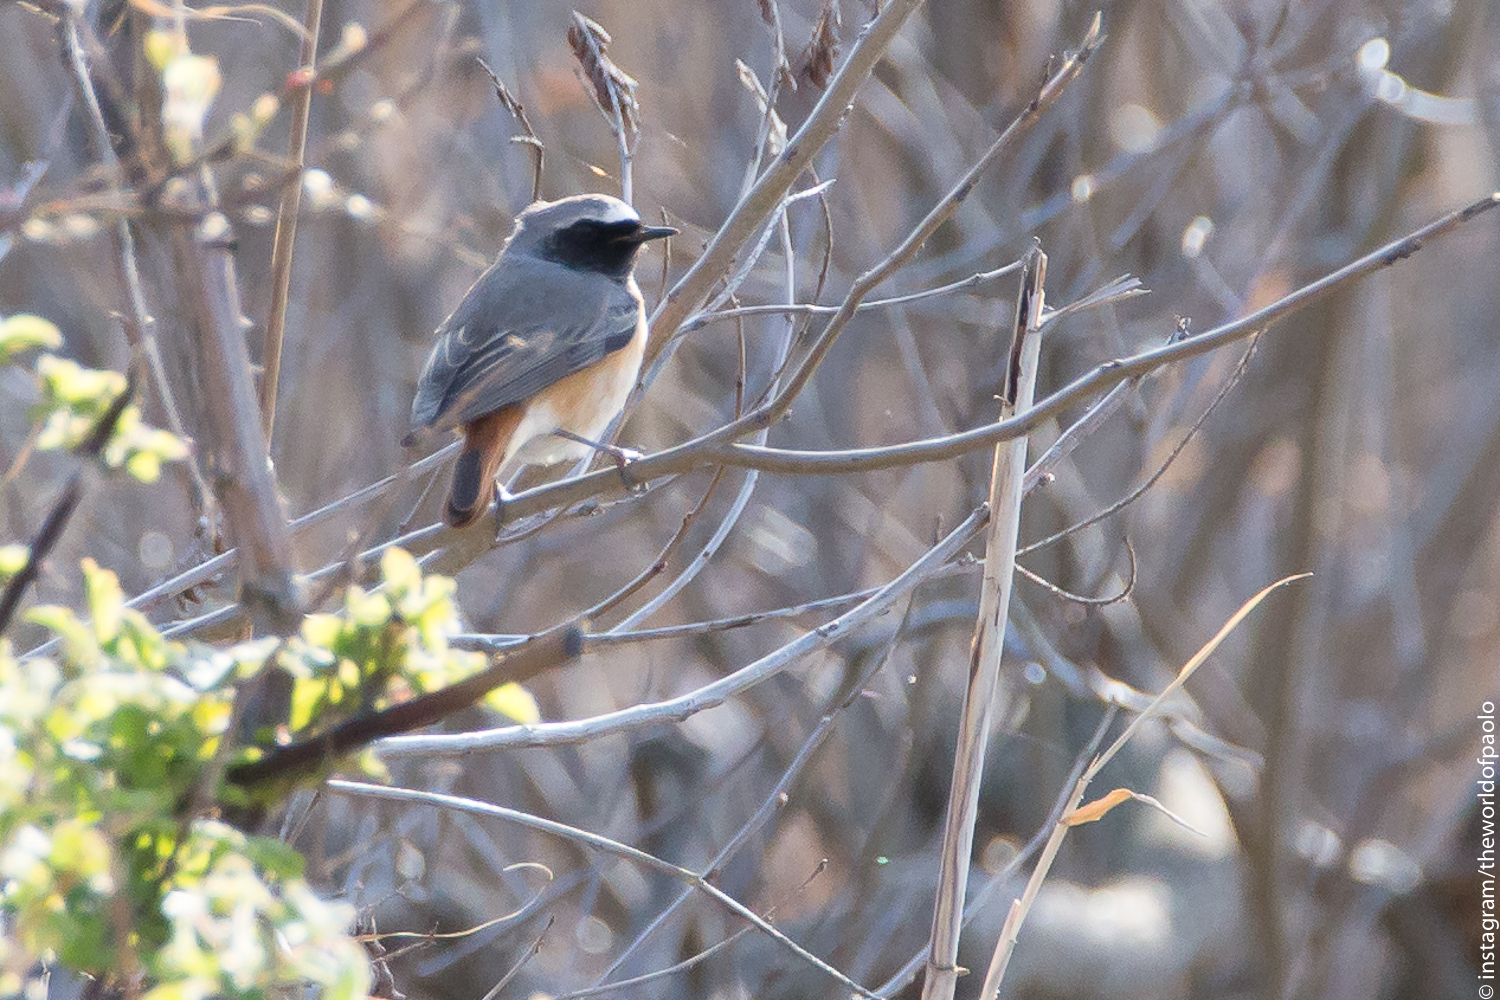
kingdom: Animalia
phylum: Chordata
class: Aves
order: Passeriformes
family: Muscicapidae
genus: Phoenicurus
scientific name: Phoenicurus phoenicurus
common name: Common redstart
